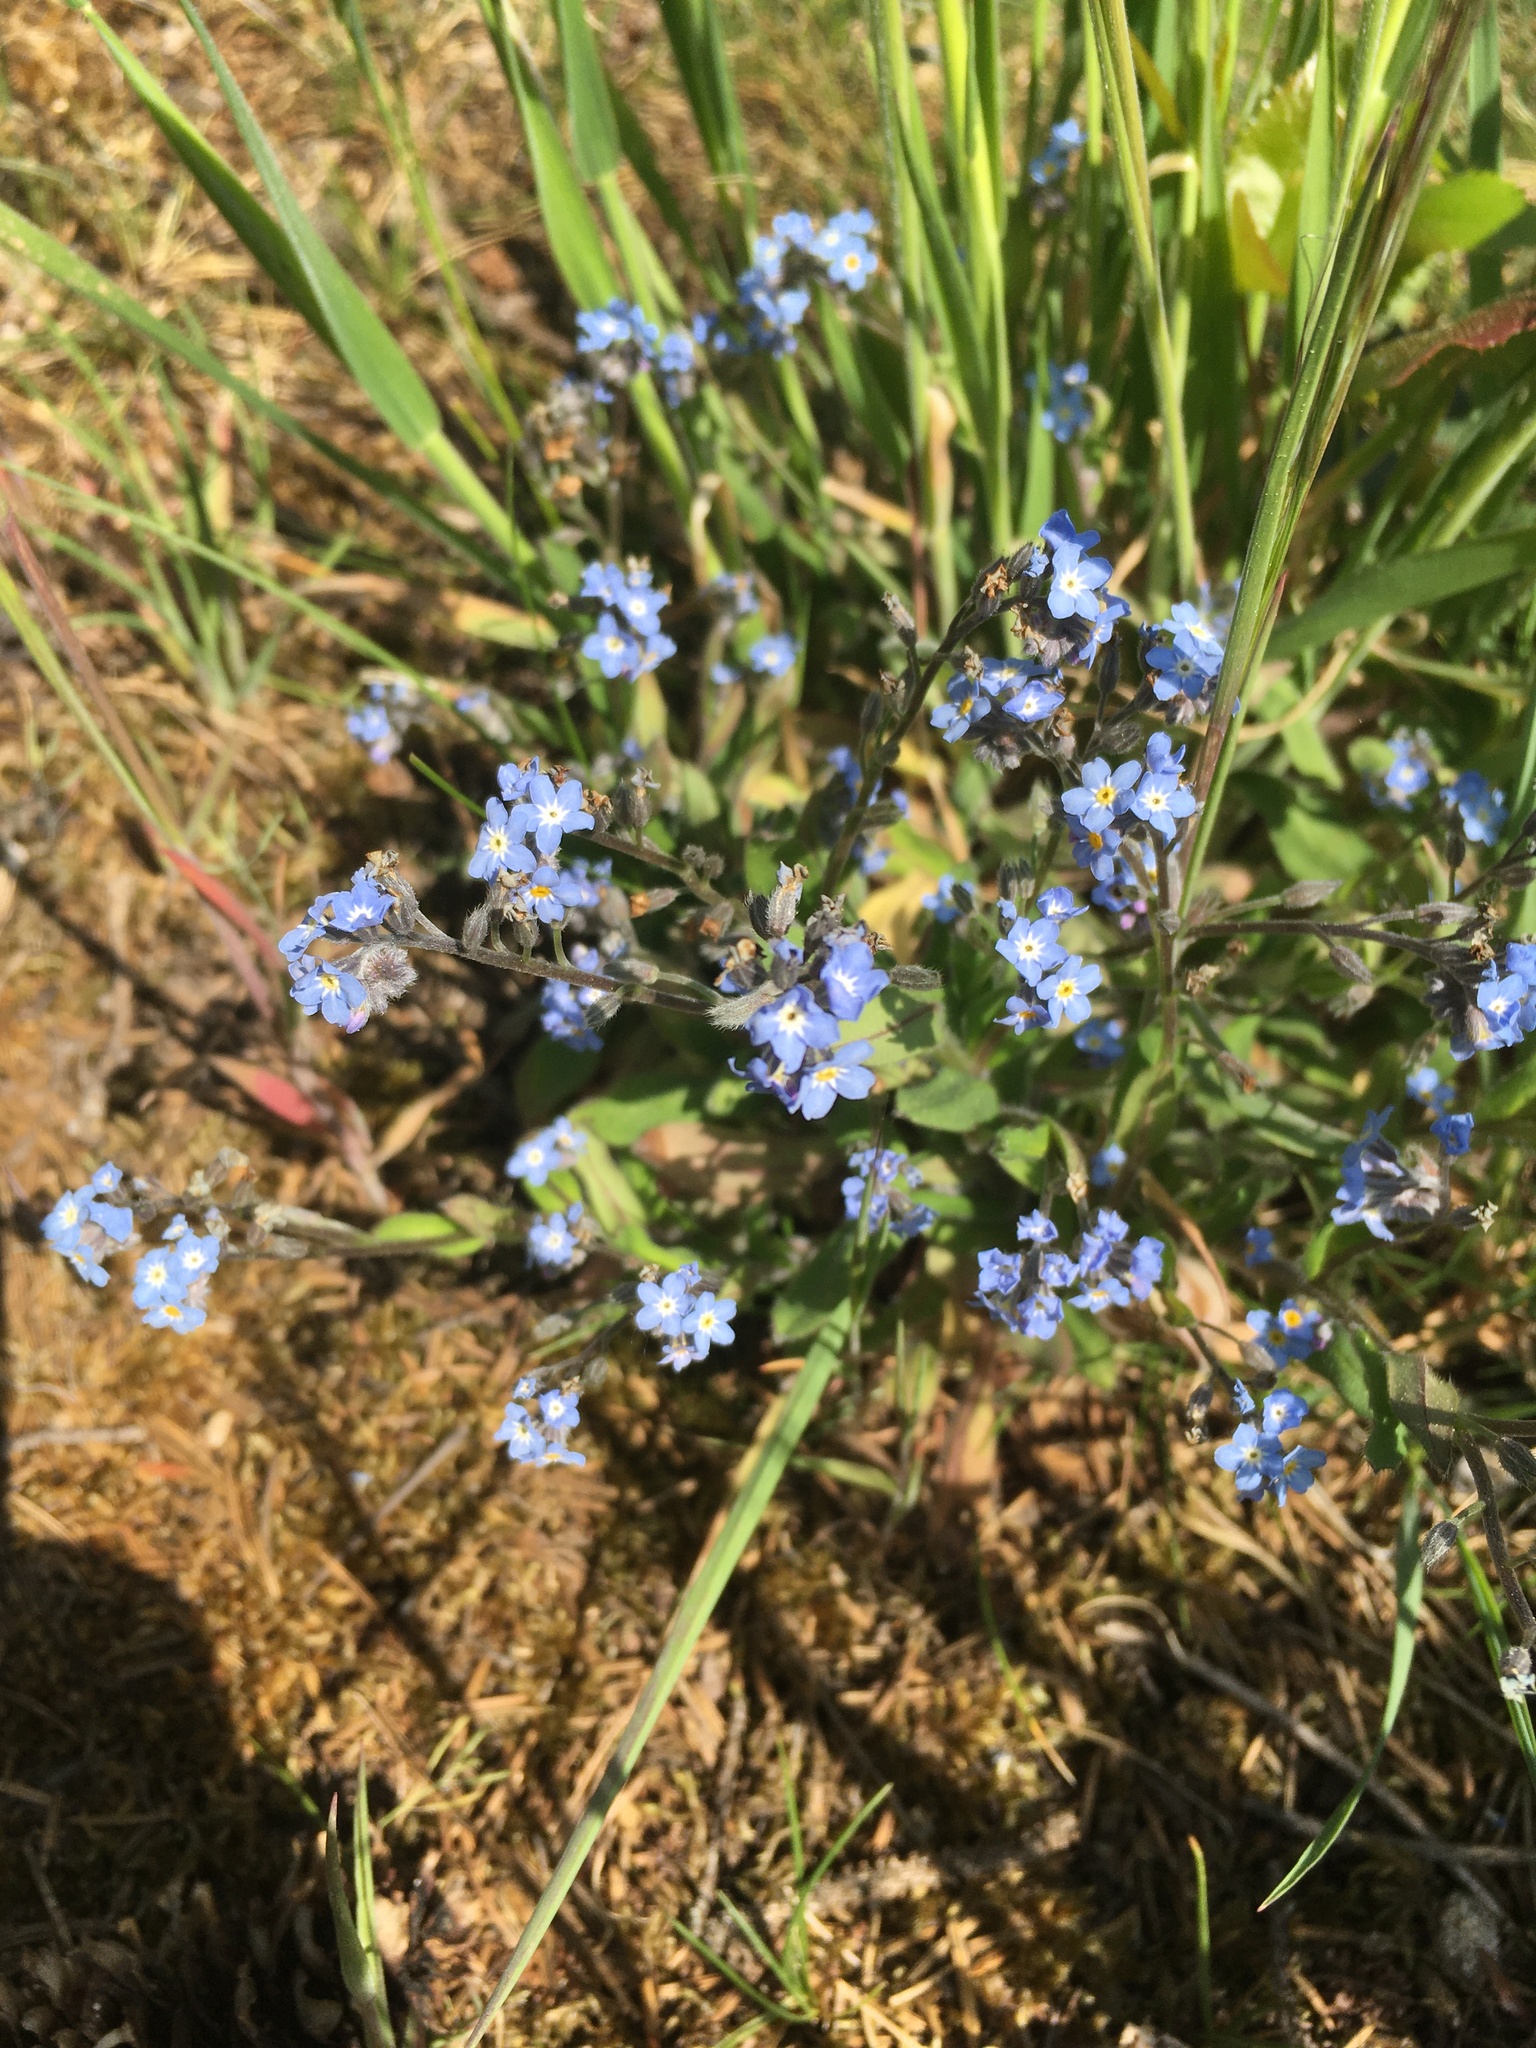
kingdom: Plantae
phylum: Tracheophyta
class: Magnoliopsida
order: Boraginales
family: Boraginaceae
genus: Myosotis
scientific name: Myosotis sylvatica
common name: Wood forget-me-not
